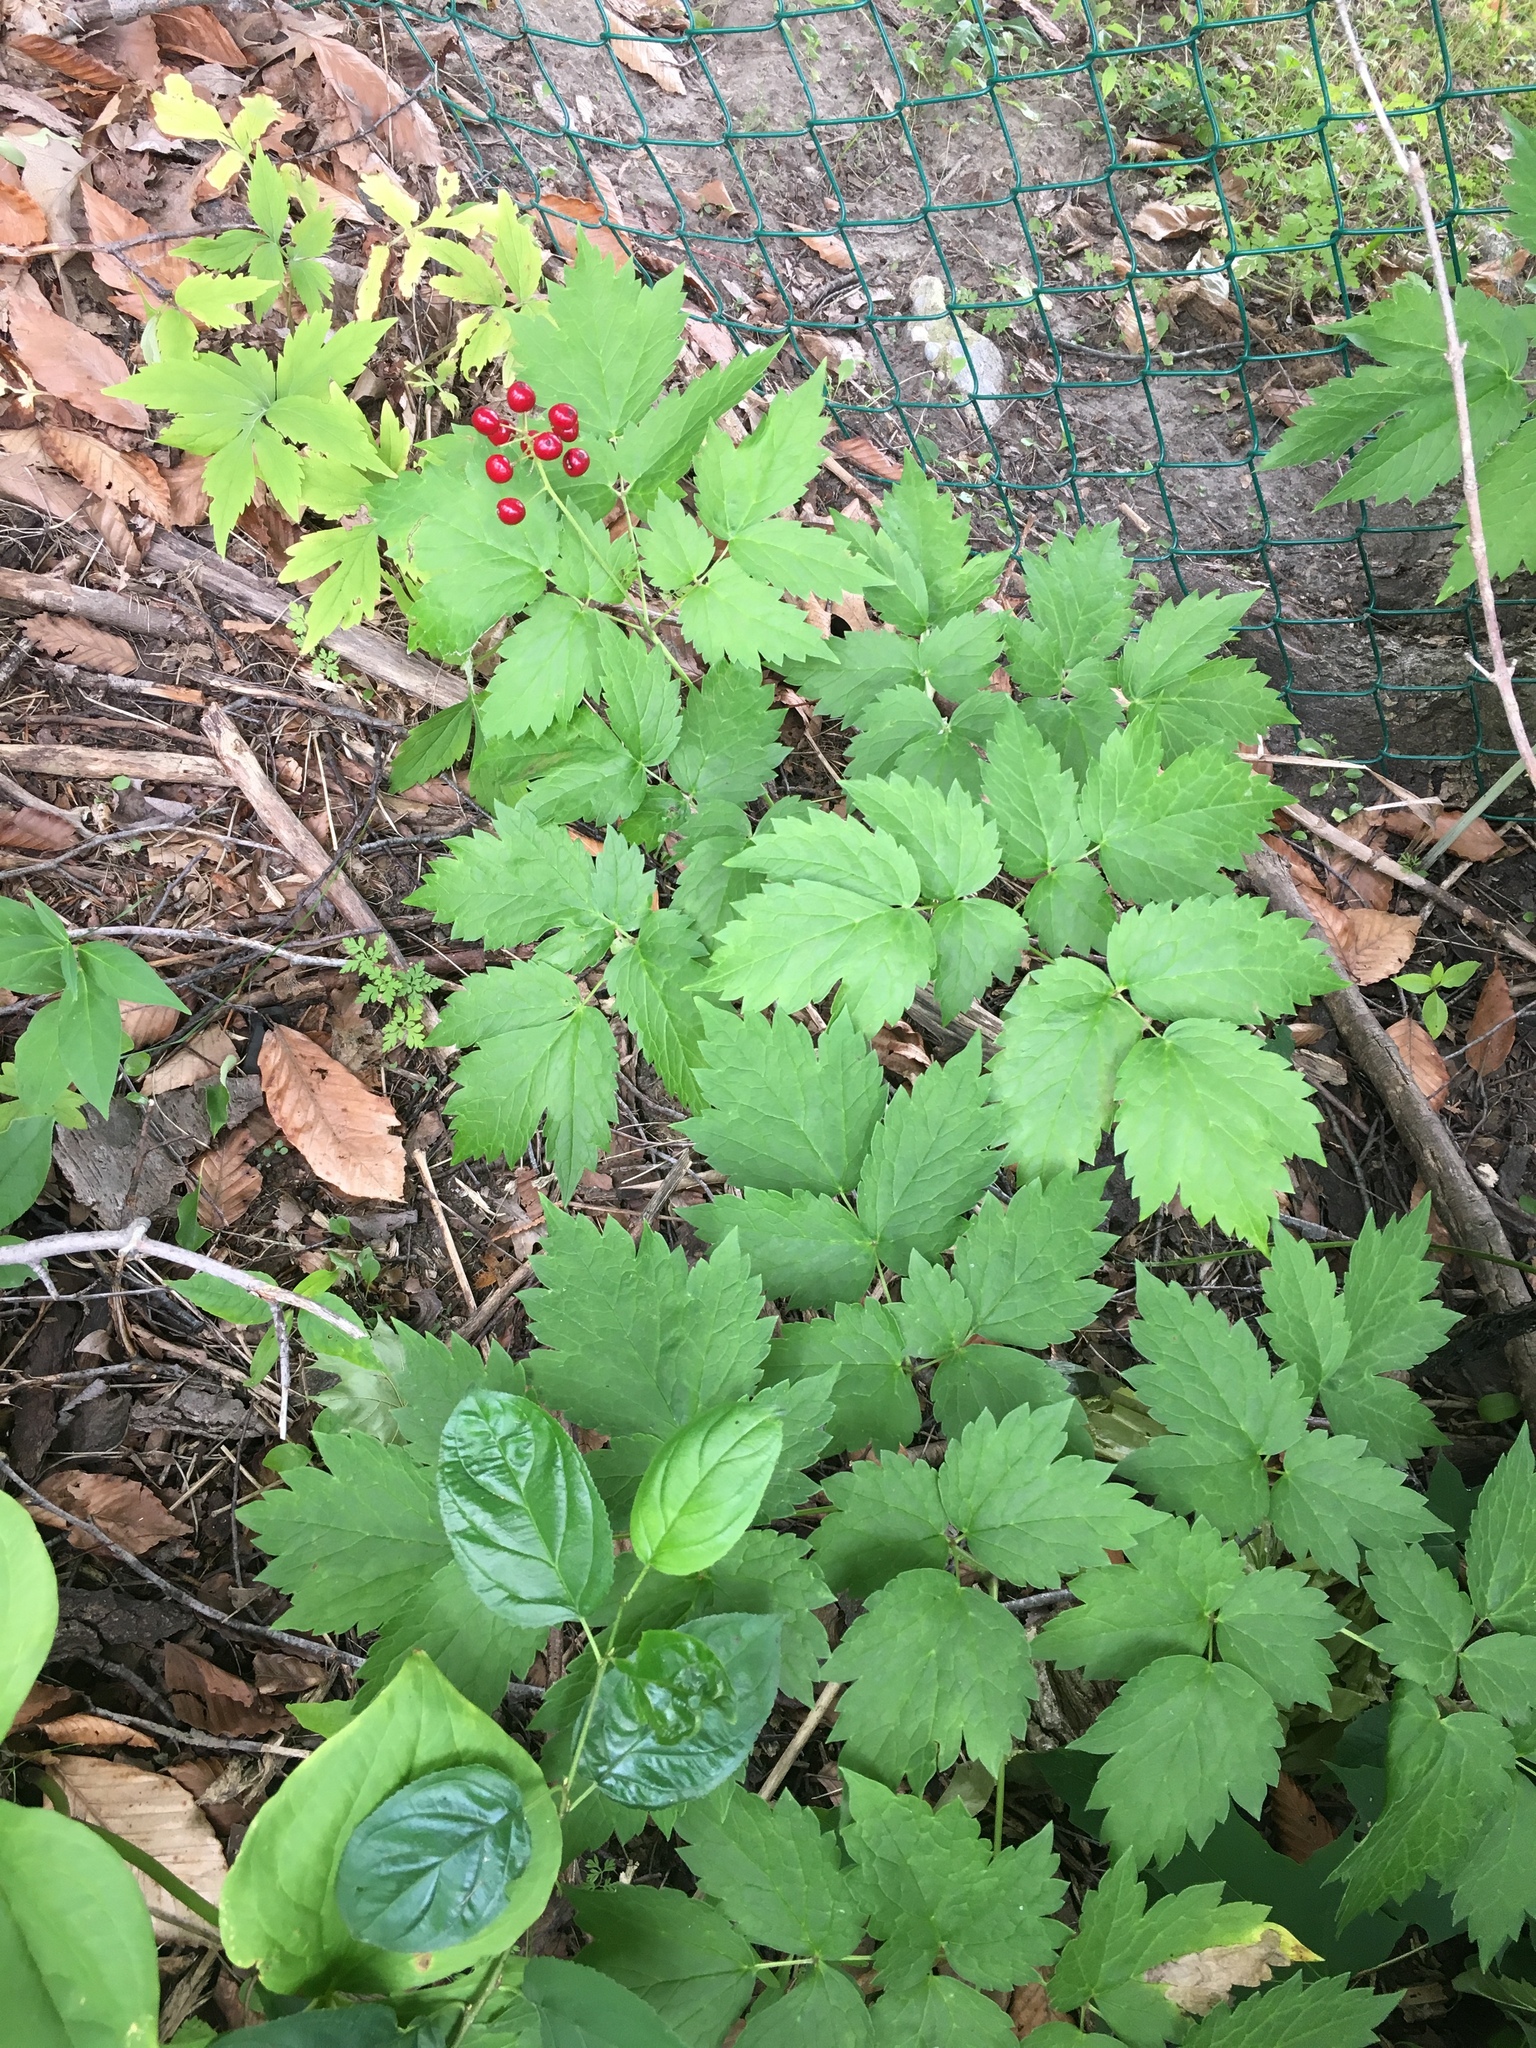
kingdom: Plantae
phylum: Tracheophyta
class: Magnoliopsida
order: Ranunculales
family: Ranunculaceae
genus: Actaea
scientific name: Actaea rubra
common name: Red baneberry
